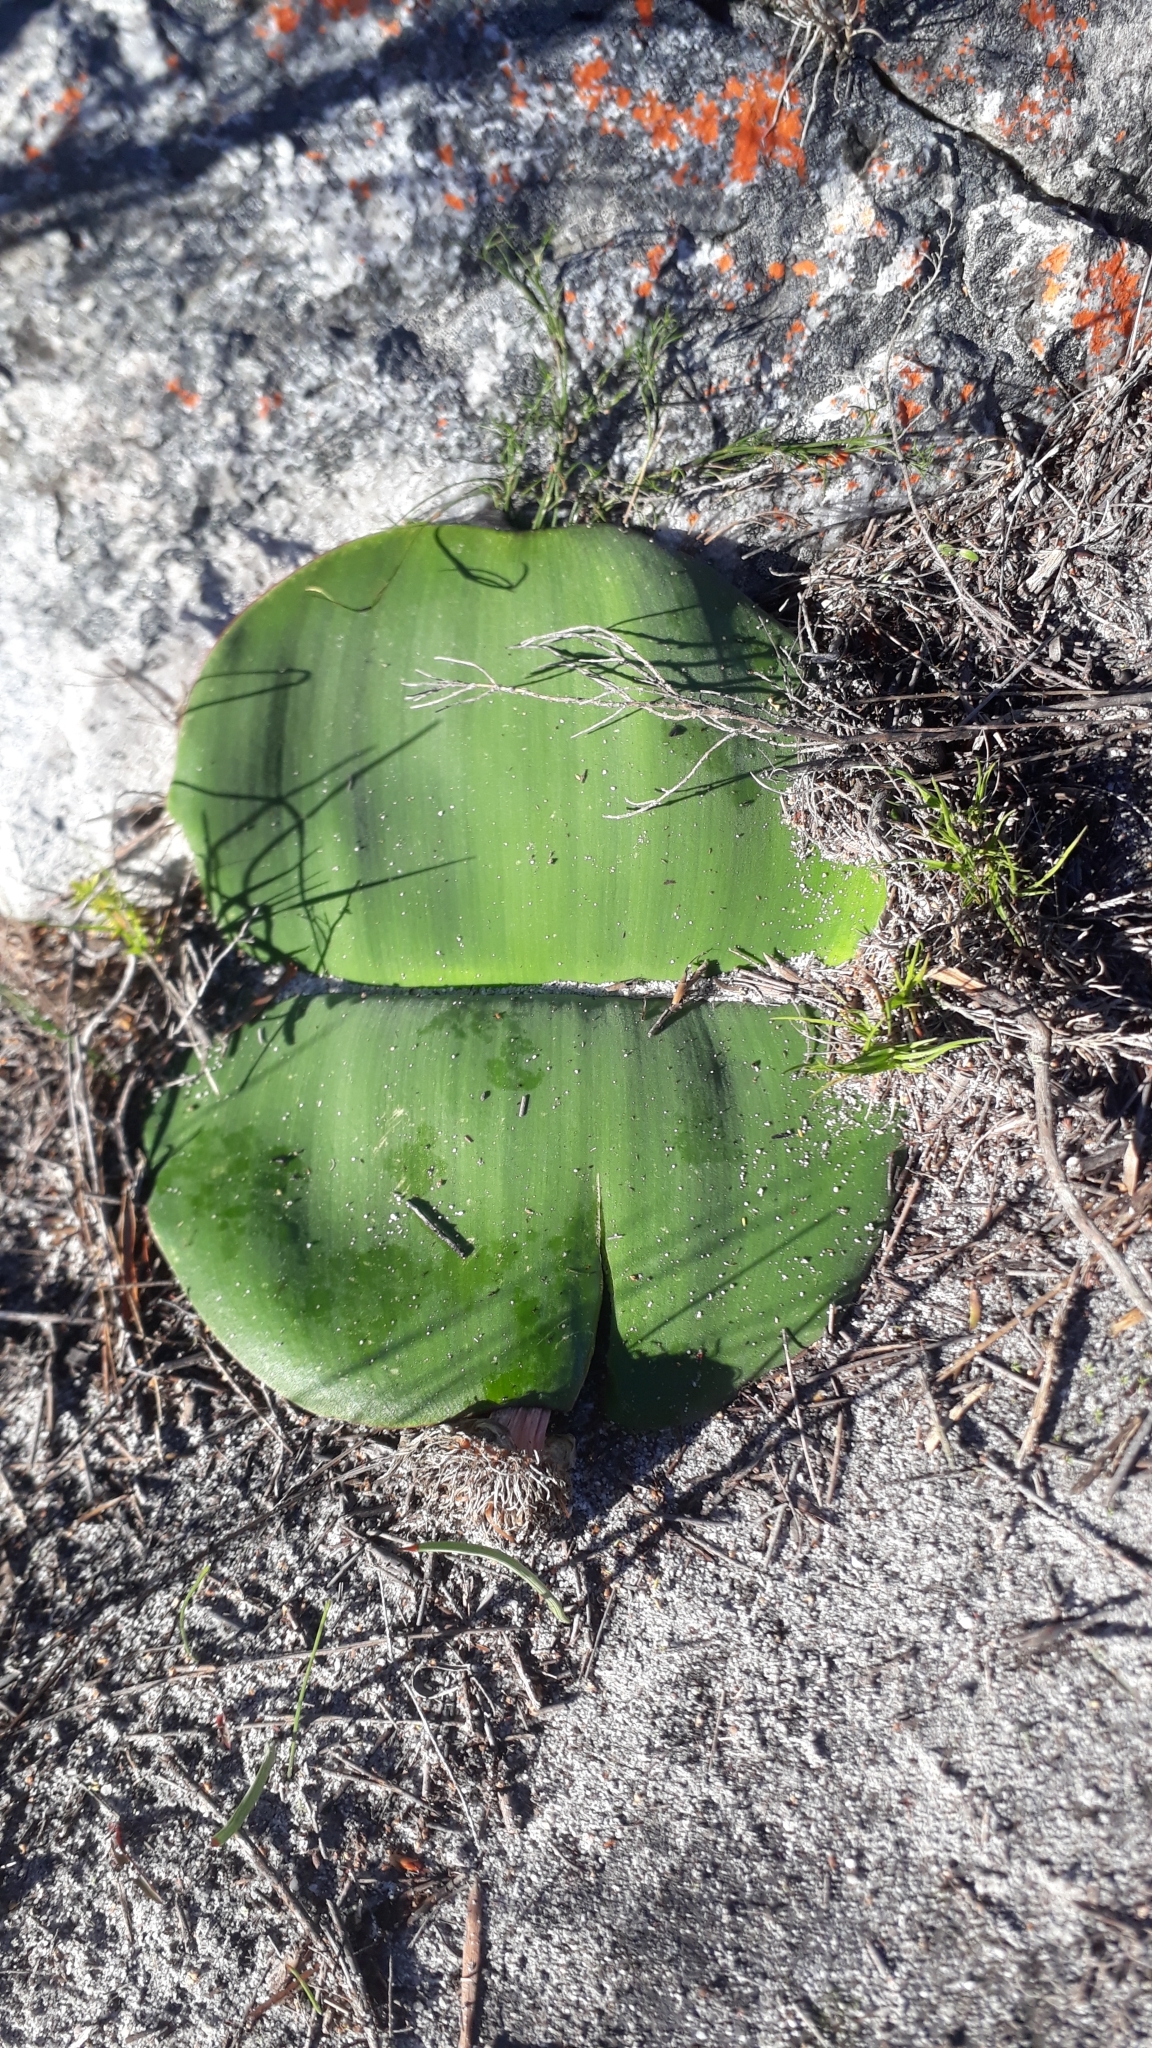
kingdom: Plantae
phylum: Tracheophyta
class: Liliopsida
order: Asparagales
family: Amaryllidaceae
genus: Haemanthus
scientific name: Haemanthus sanguineus
